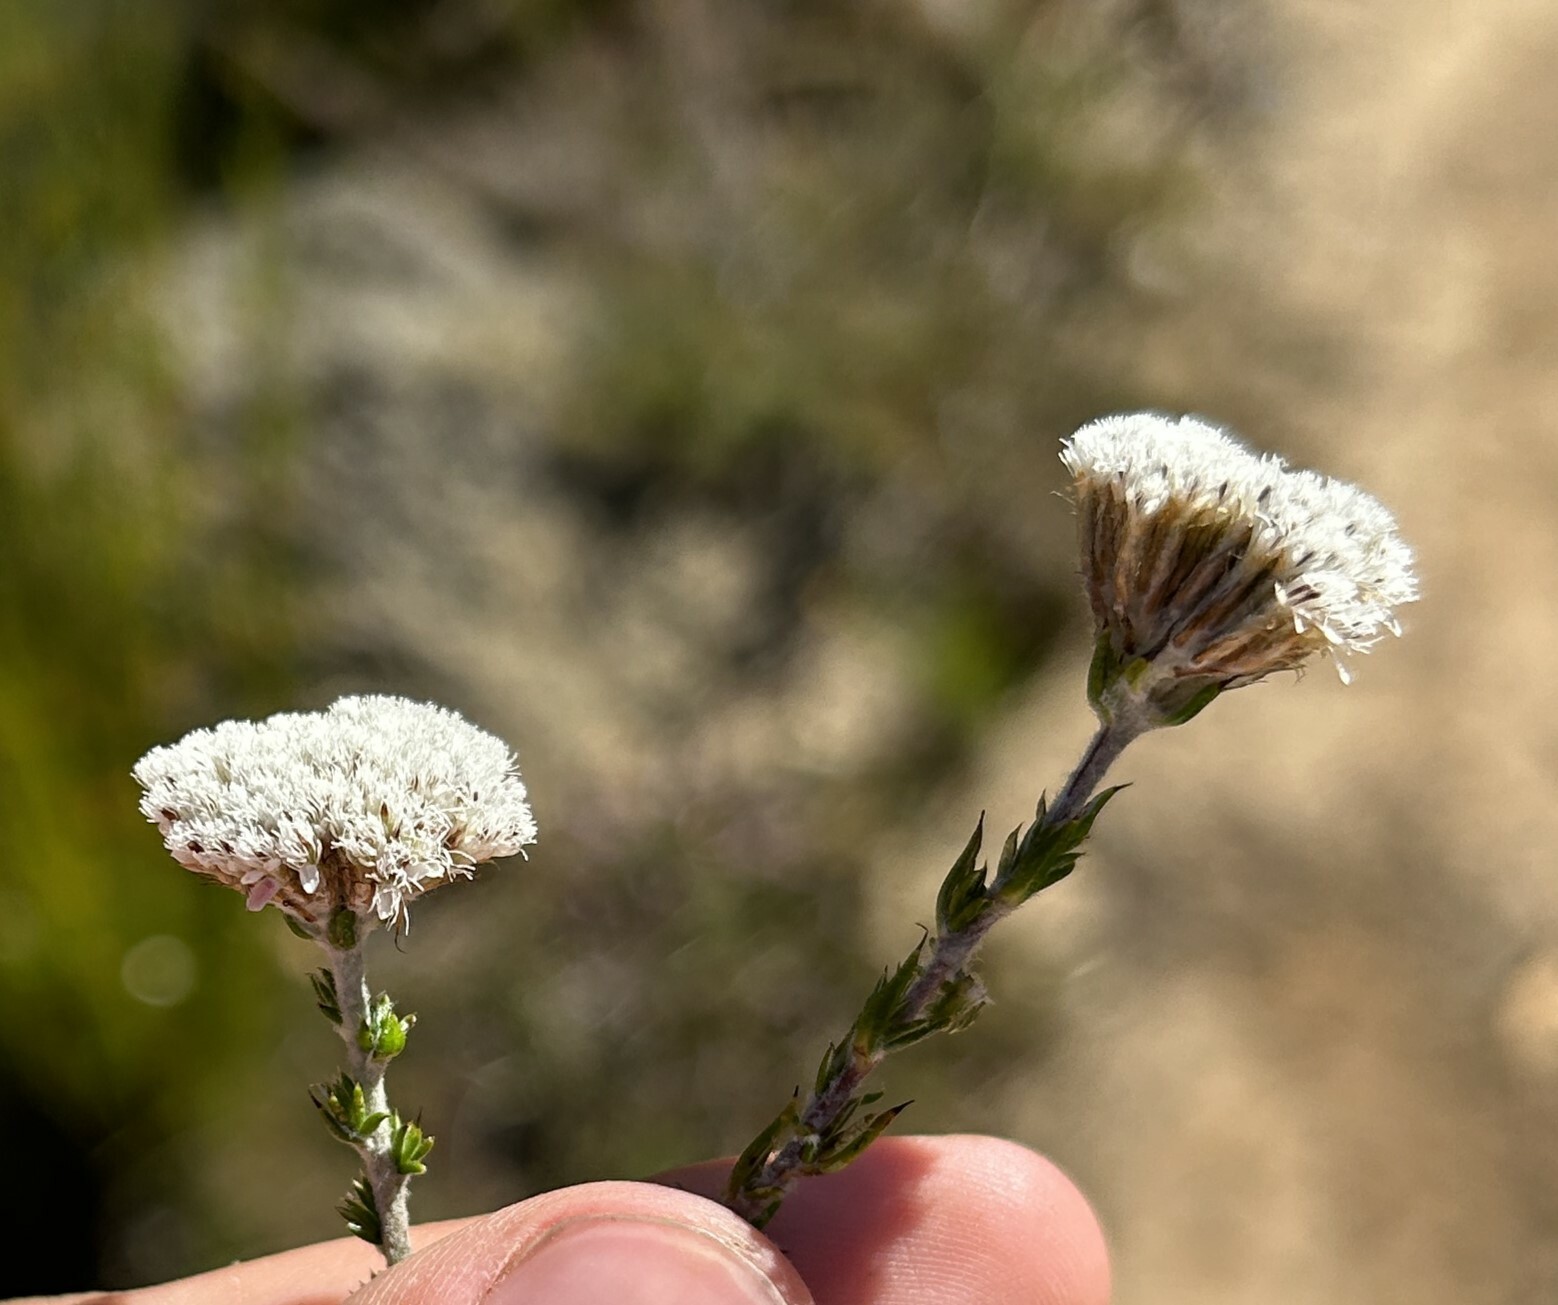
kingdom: Plantae
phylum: Tracheophyta
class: Magnoliopsida
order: Asterales
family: Asteraceae
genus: Metalasia
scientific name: Metalasia pungens
